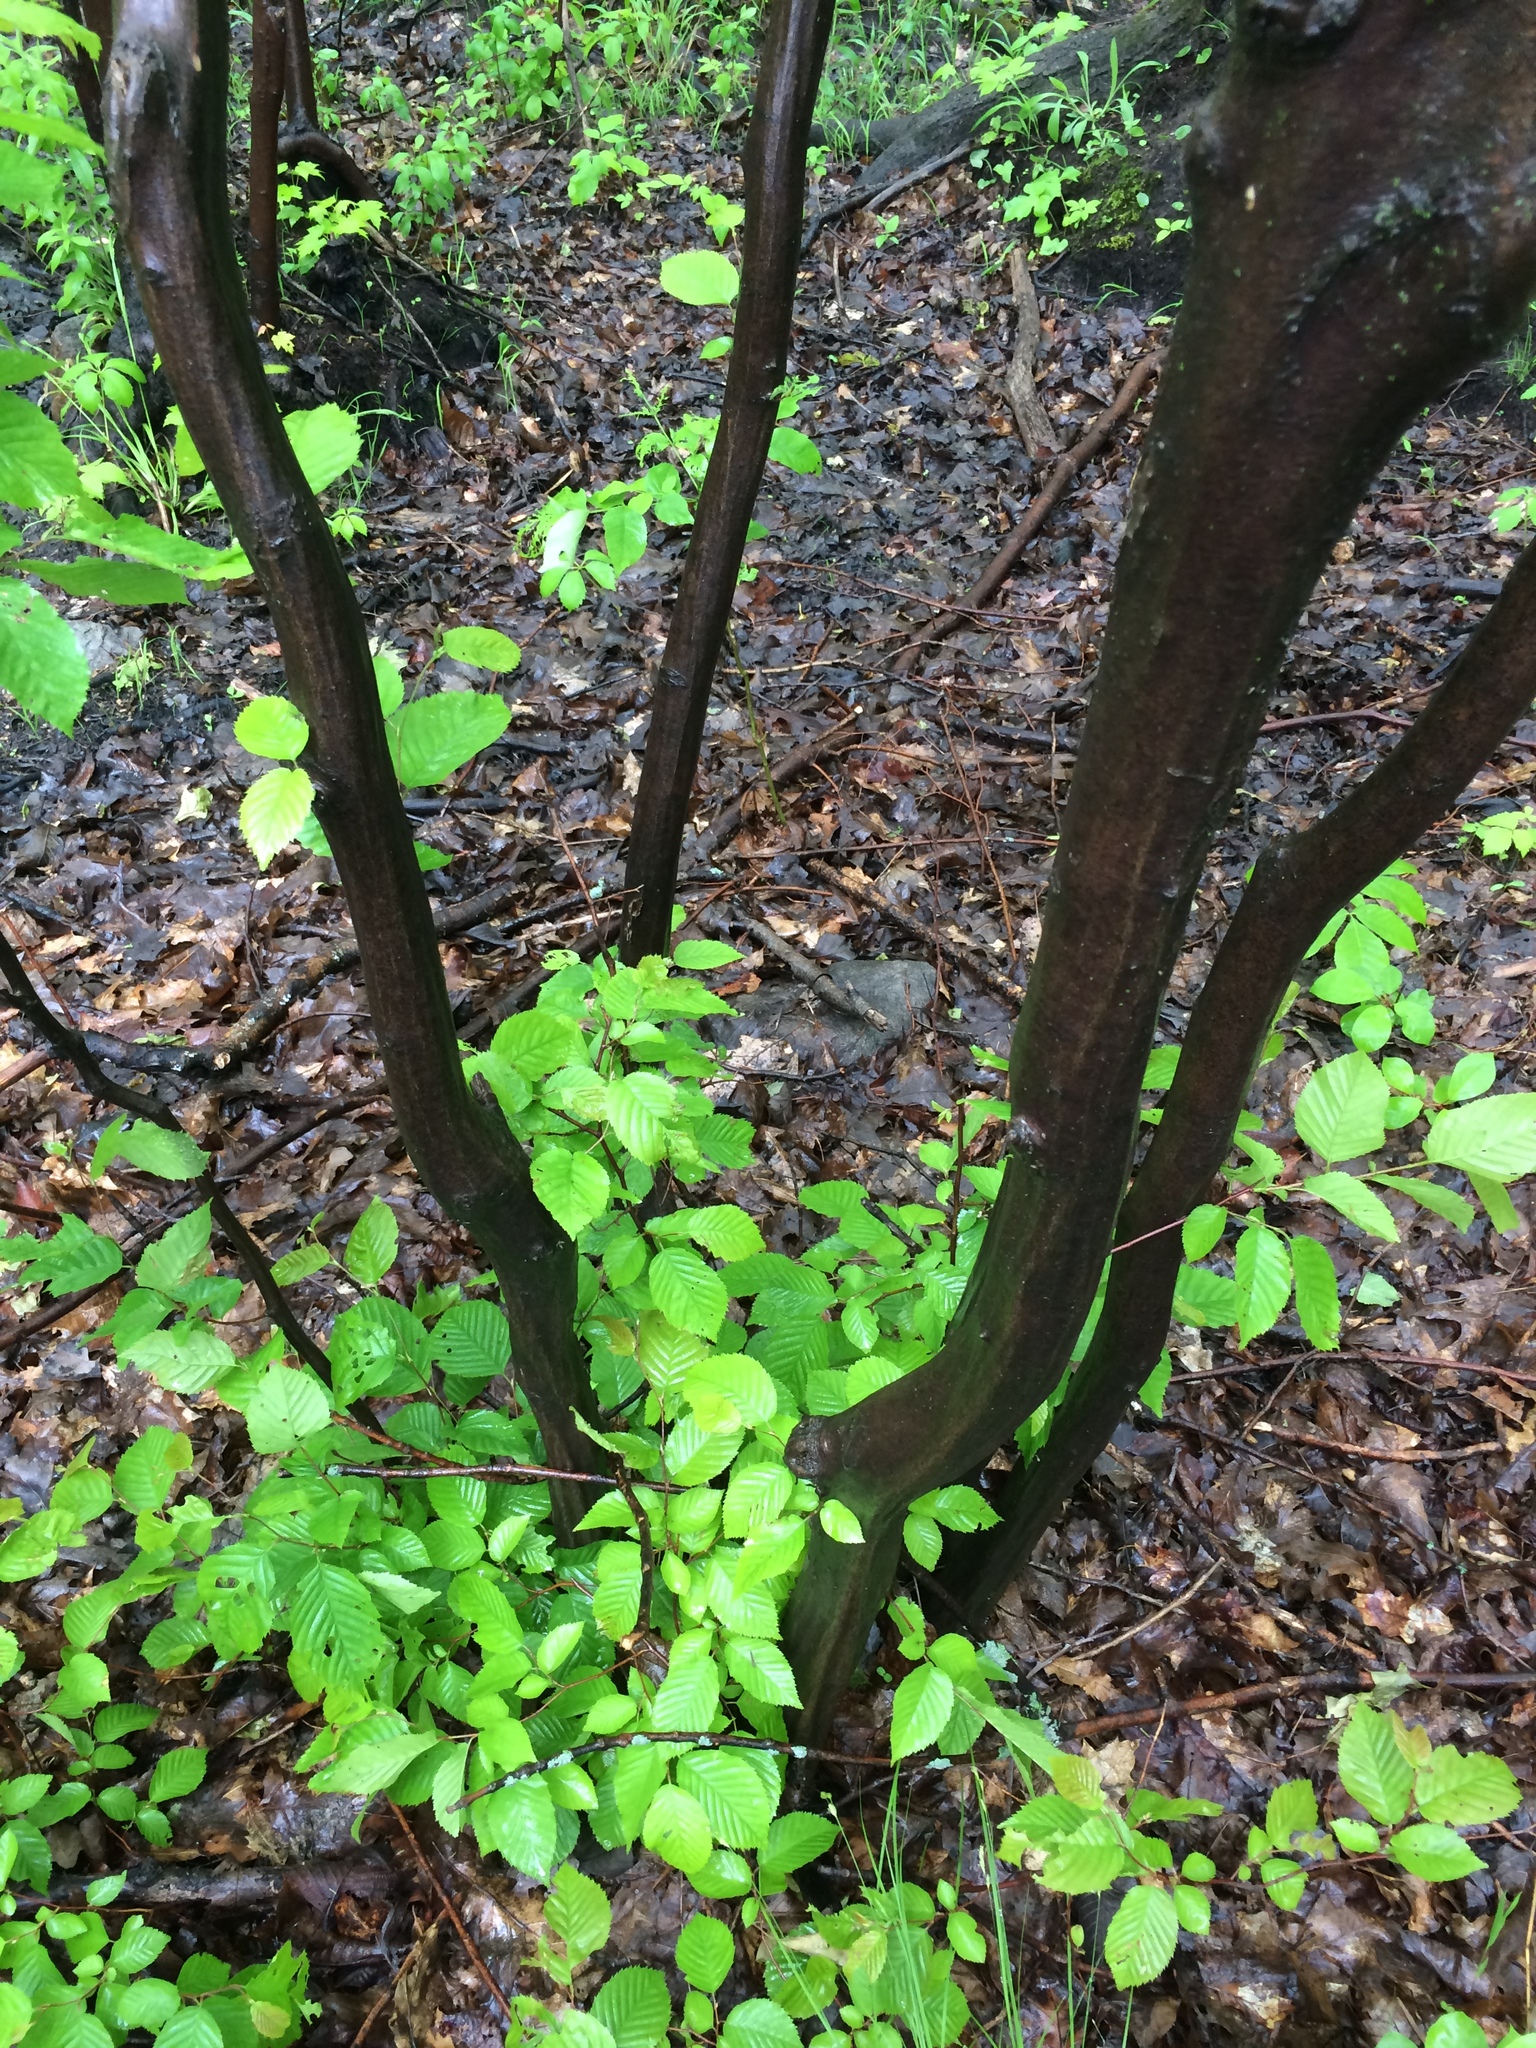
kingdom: Plantae
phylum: Tracheophyta
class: Magnoliopsida
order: Fagales
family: Betulaceae
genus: Carpinus
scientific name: Carpinus caroliniana
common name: American hornbeam
